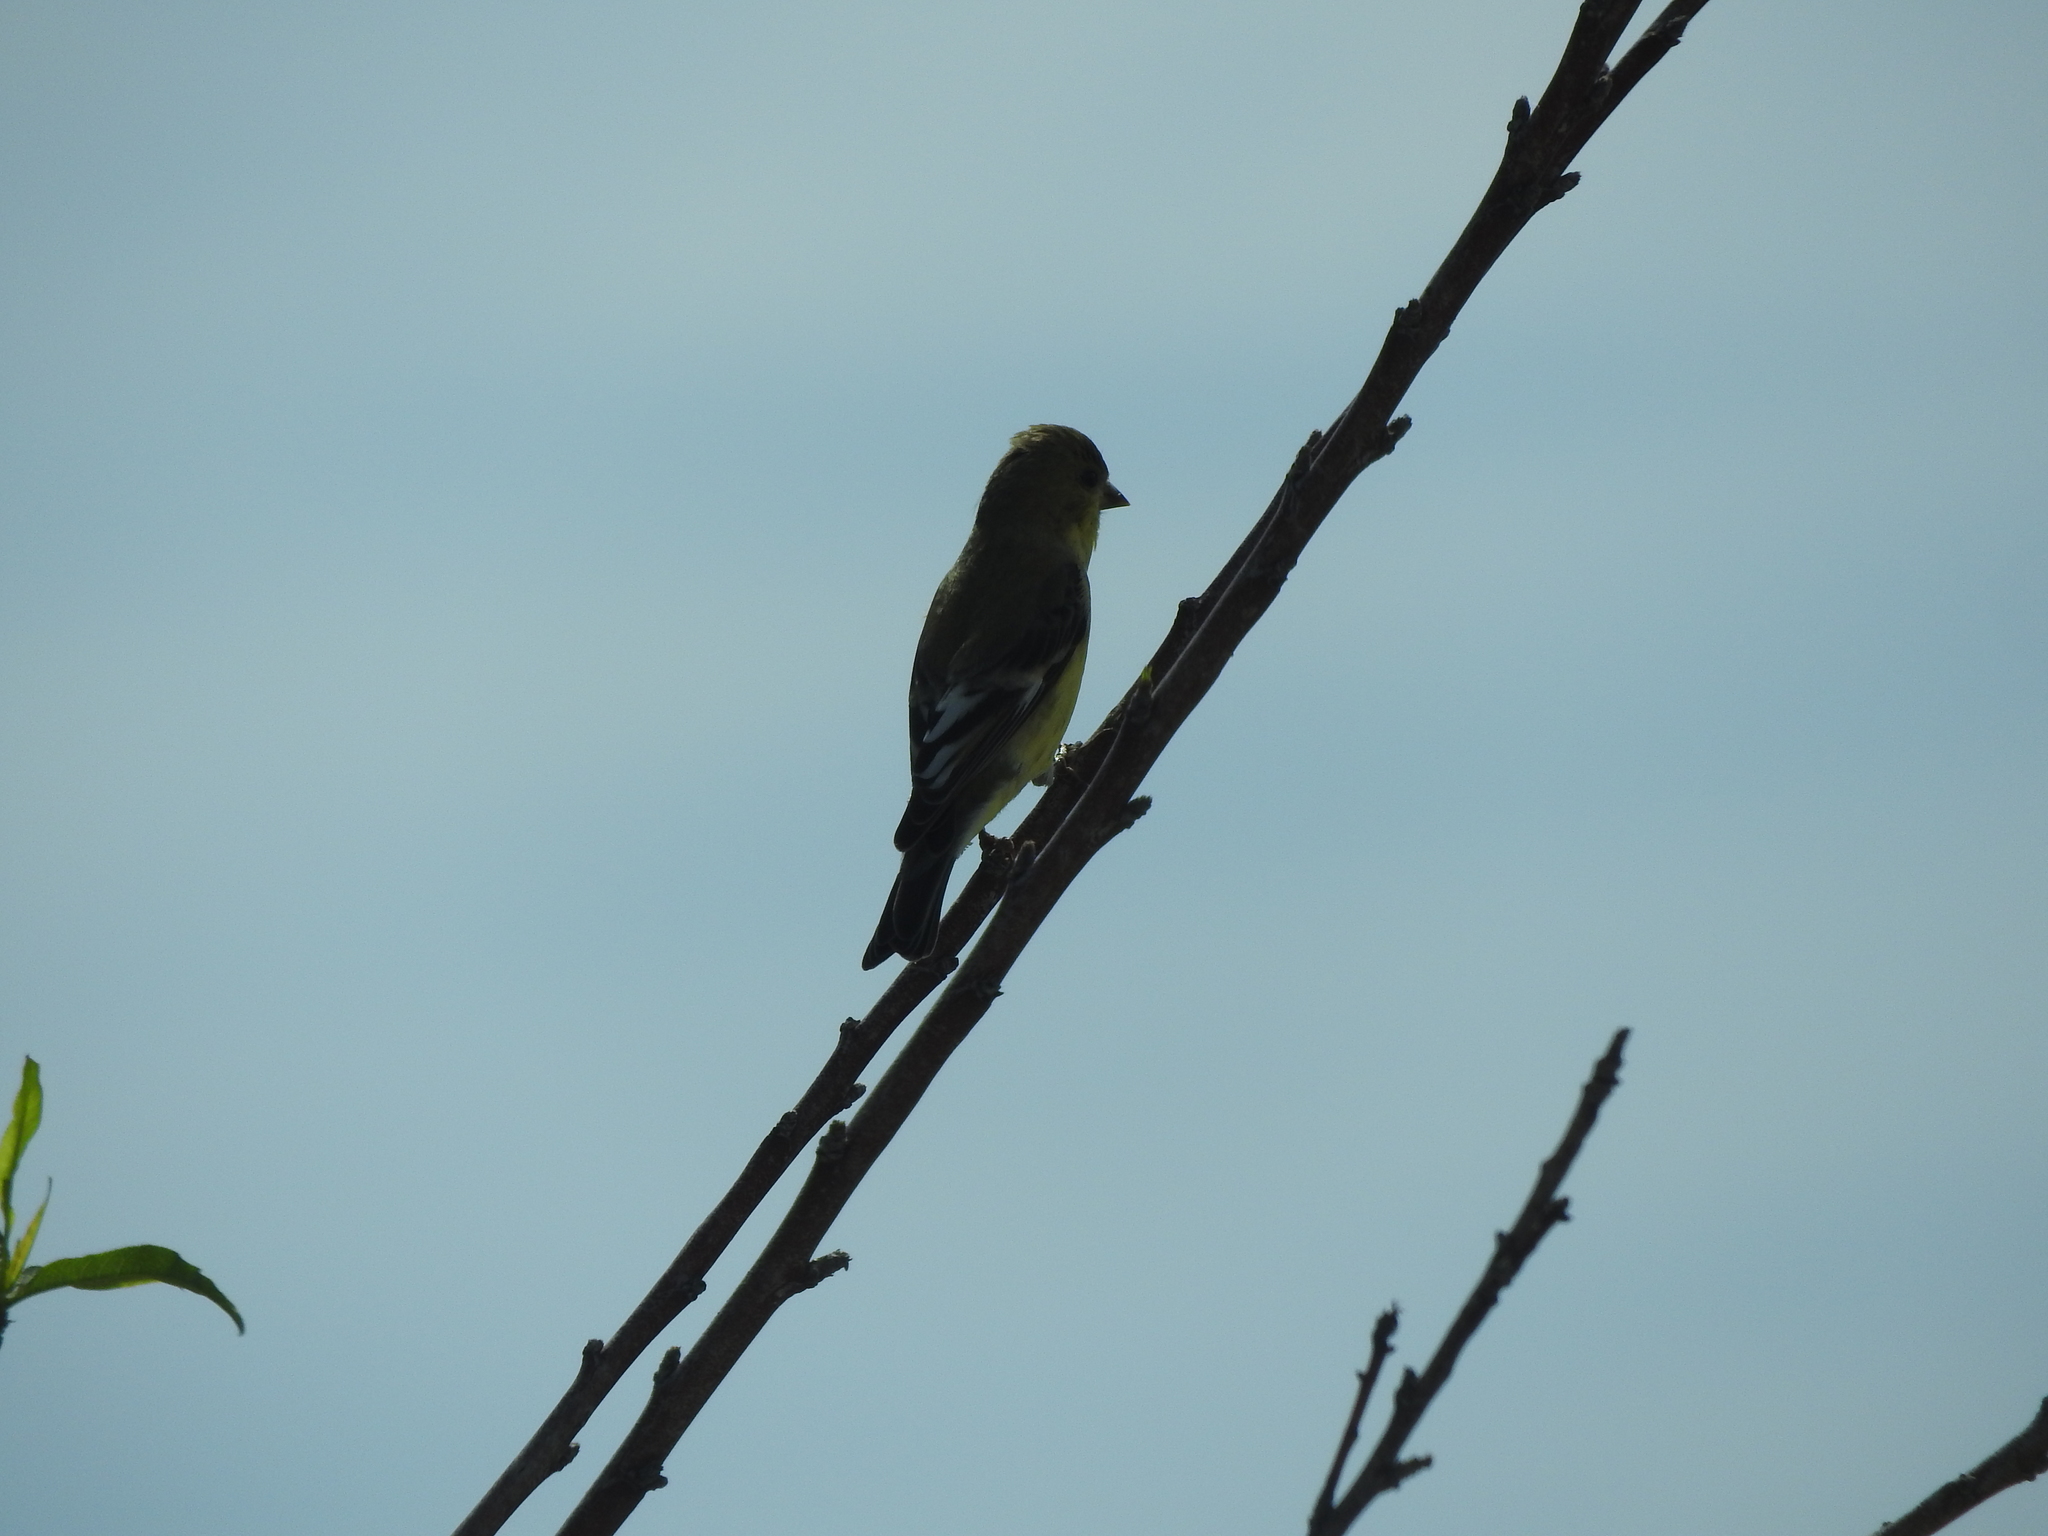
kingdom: Animalia
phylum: Chordata
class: Aves
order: Passeriformes
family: Fringillidae
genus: Spinus
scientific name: Spinus psaltria
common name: Lesser goldfinch
